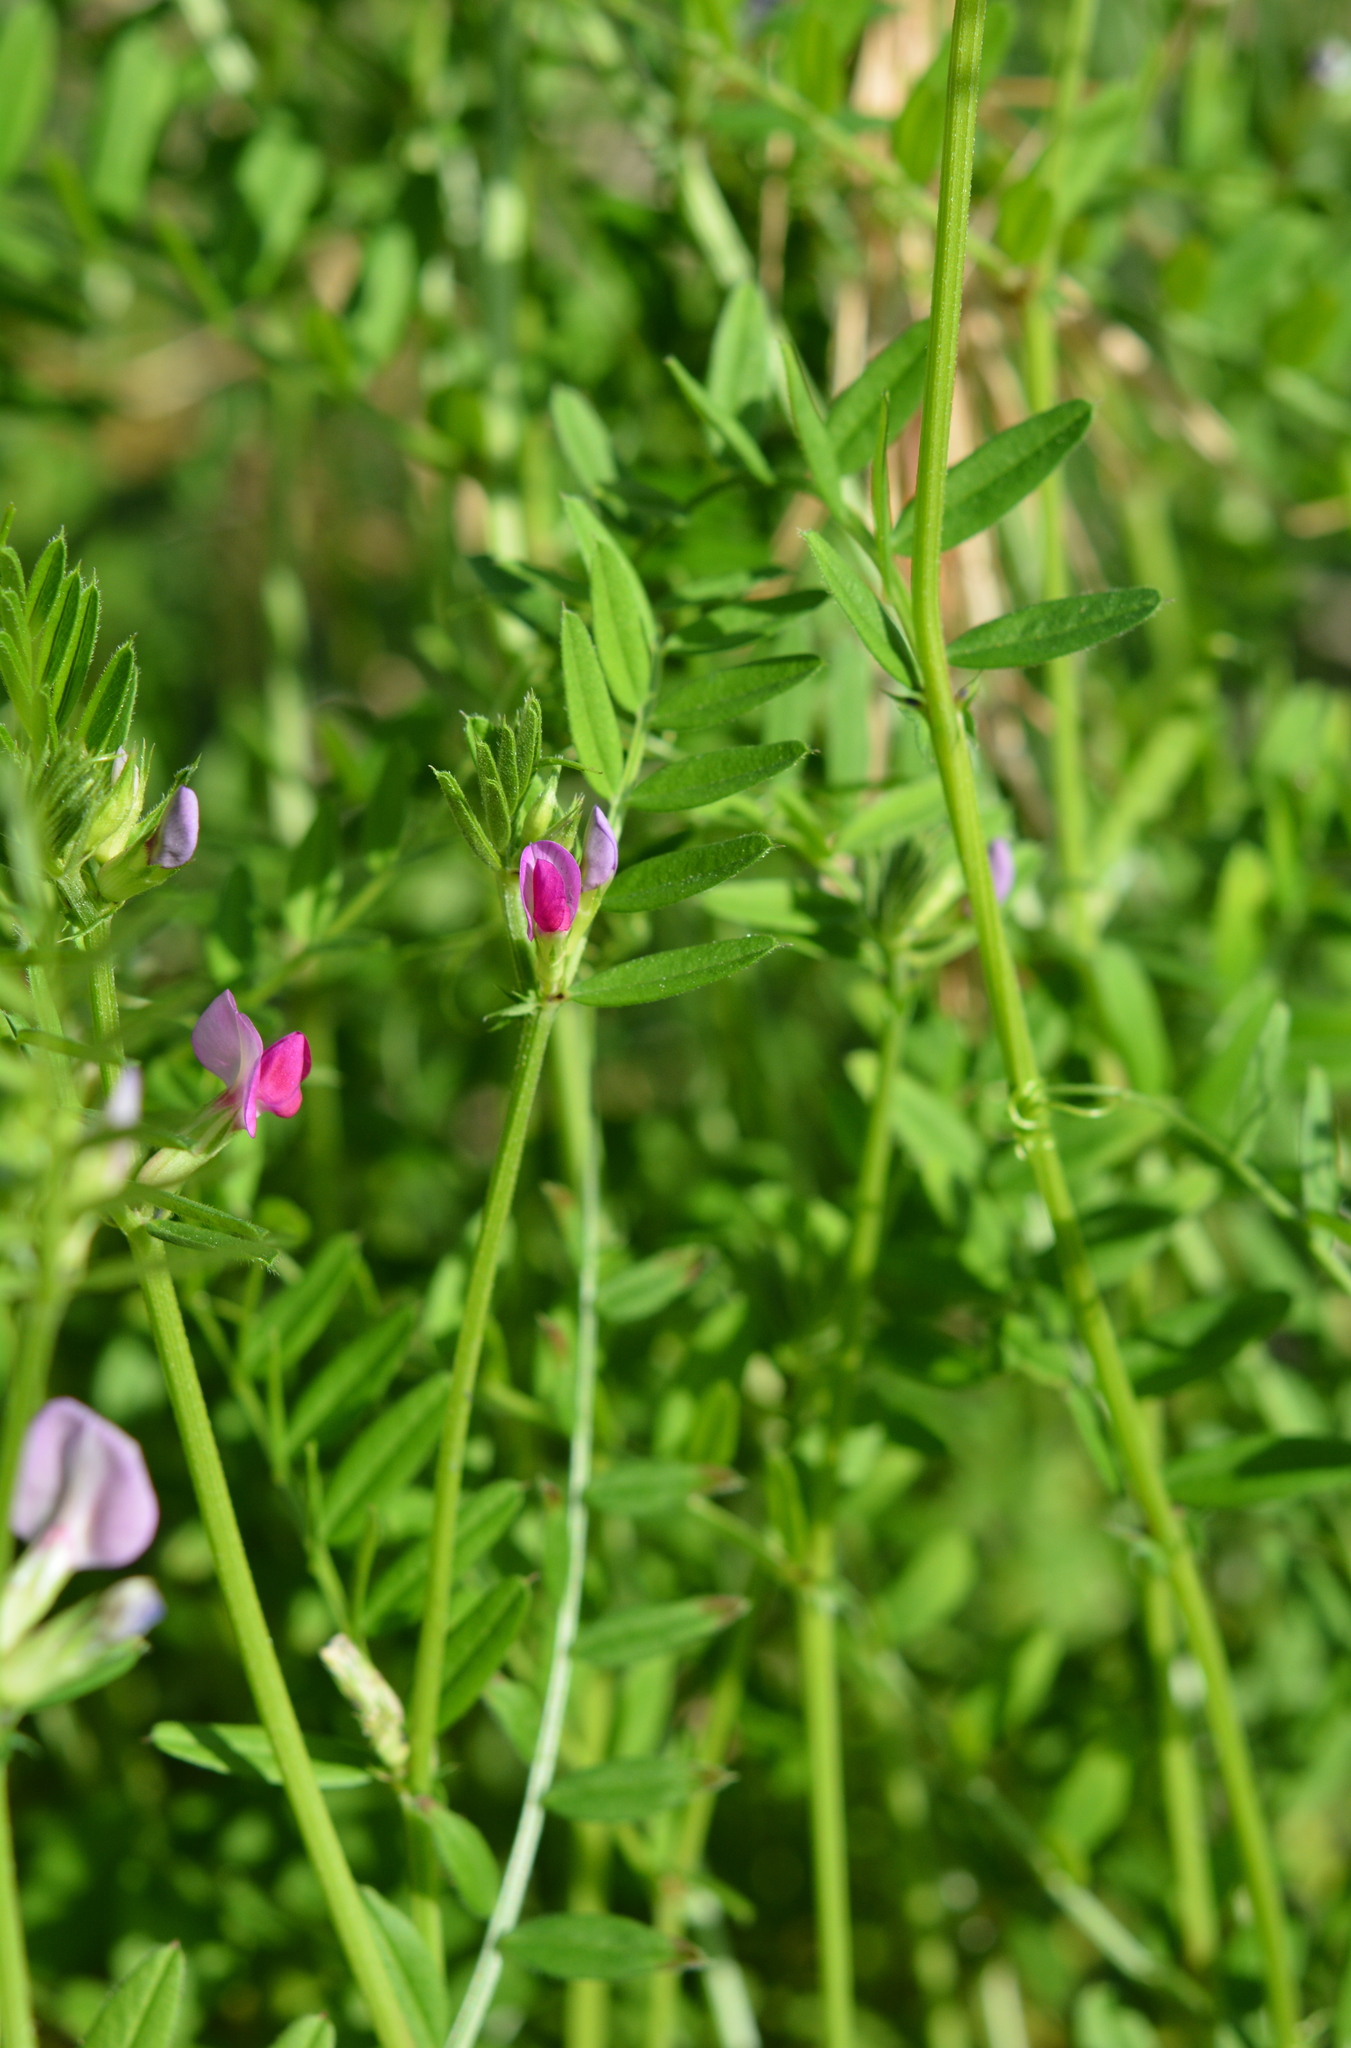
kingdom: Plantae
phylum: Tracheophyta
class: Magnoliopsida
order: Fabales
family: Fabaceae
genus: Vicia
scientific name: Vicia sativa
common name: Garden vetch
